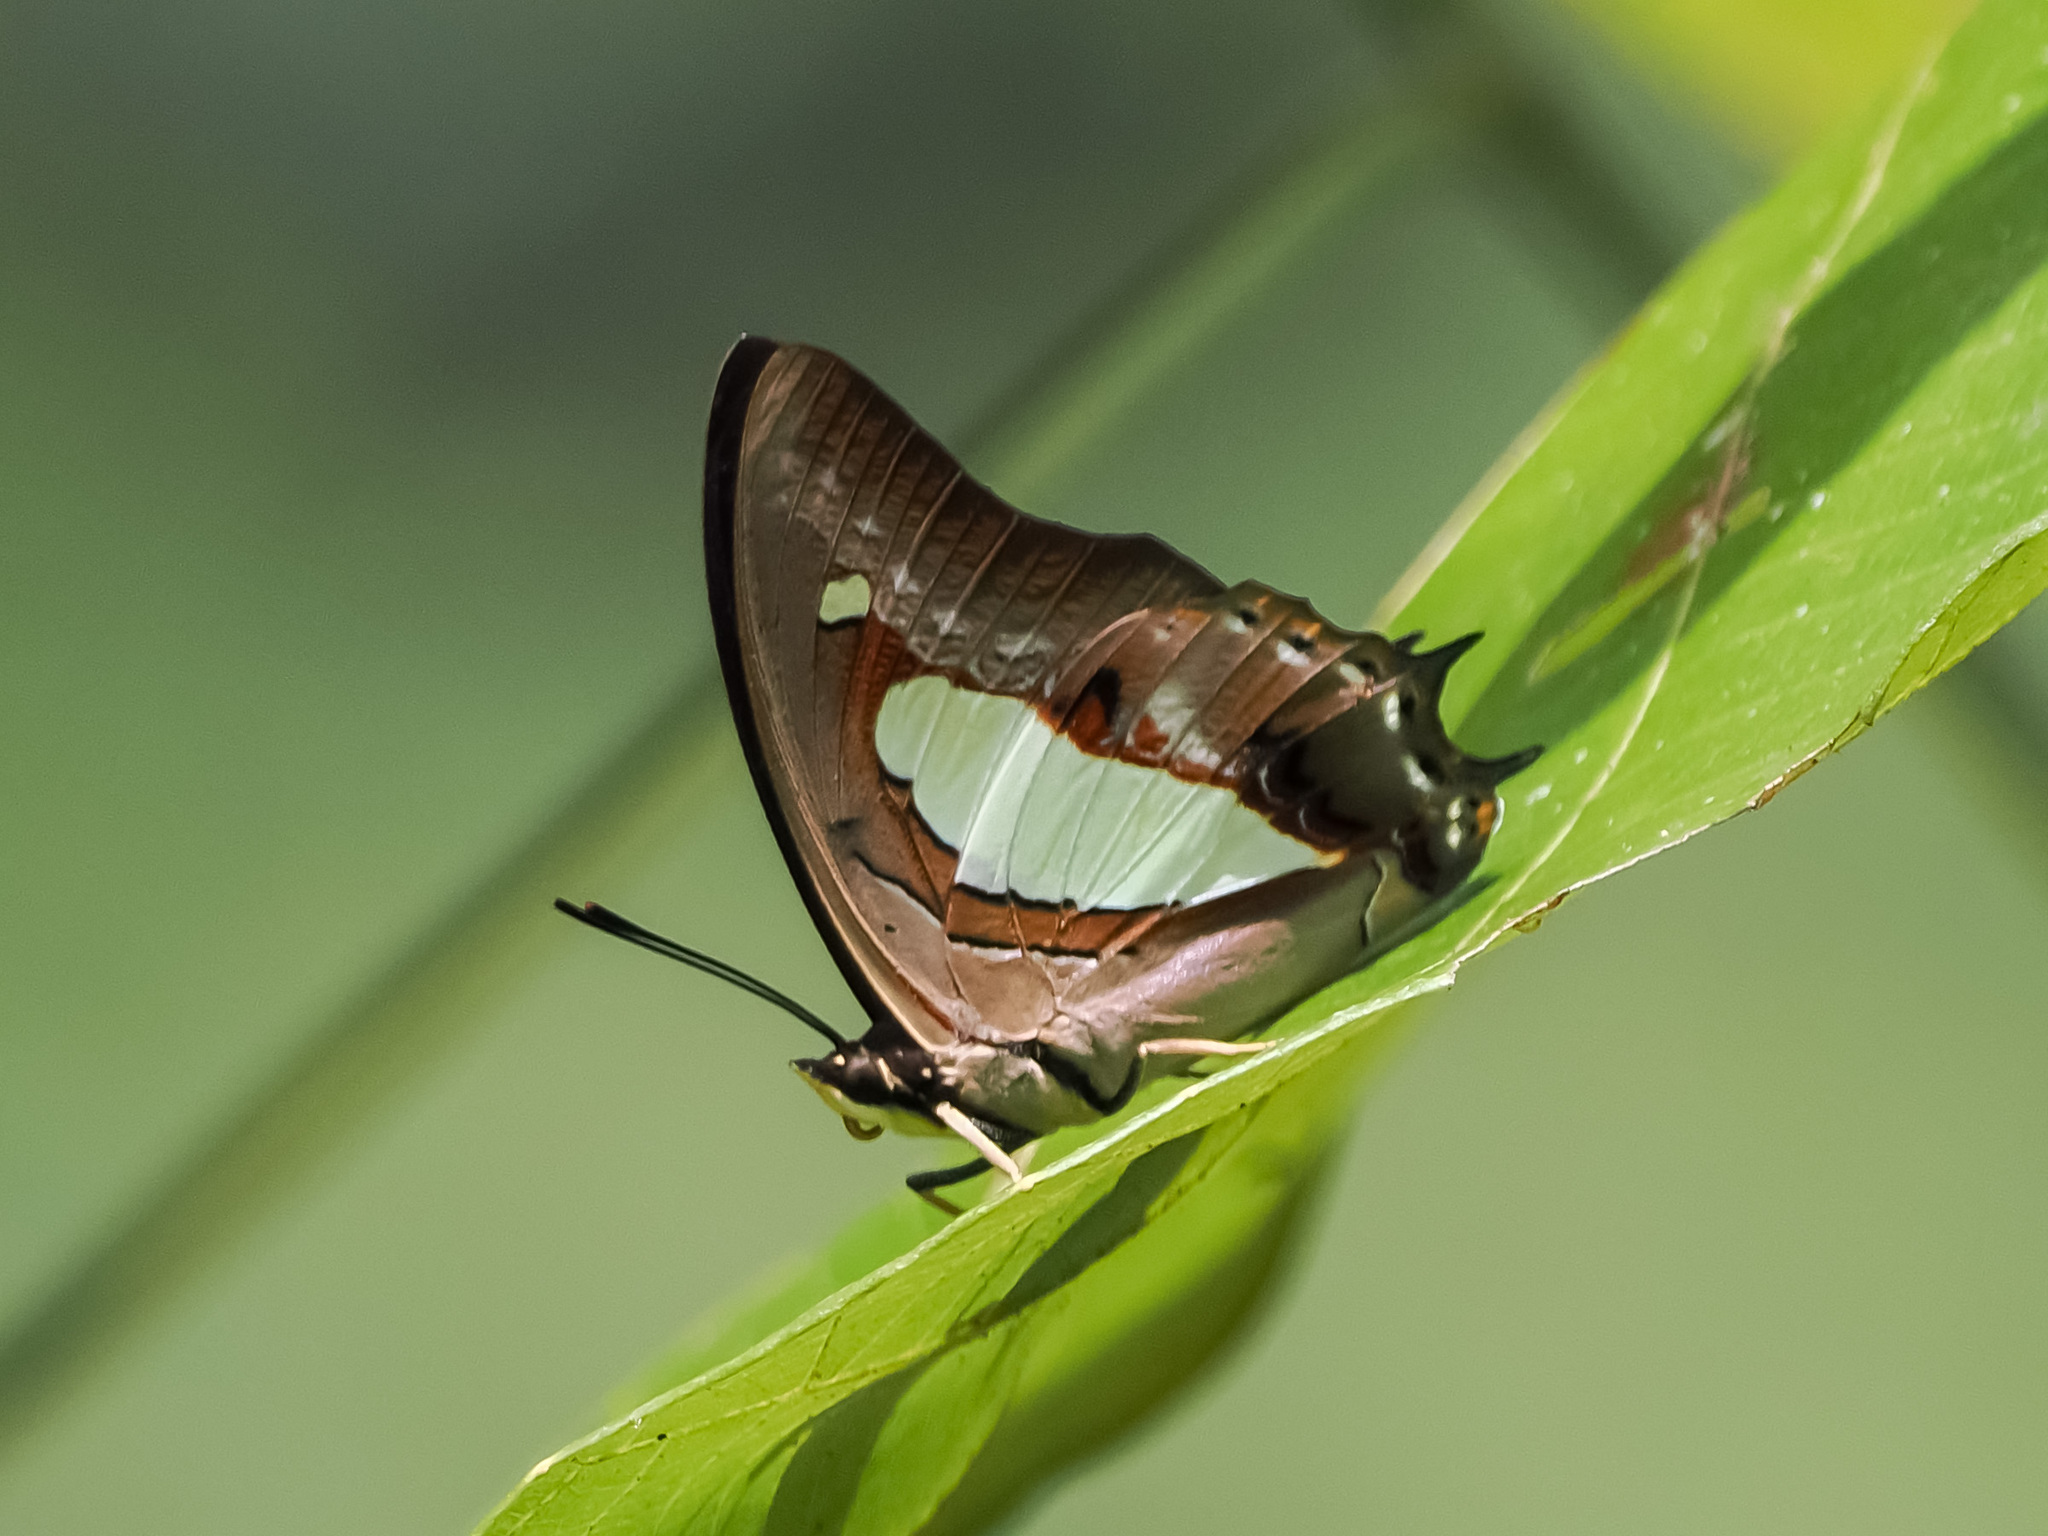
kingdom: Animalia
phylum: Arthropoda
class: Insecta
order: Lepidoptera
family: Nymphalidae
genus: Polyura
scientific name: Polyura athamas
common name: Common nawab
